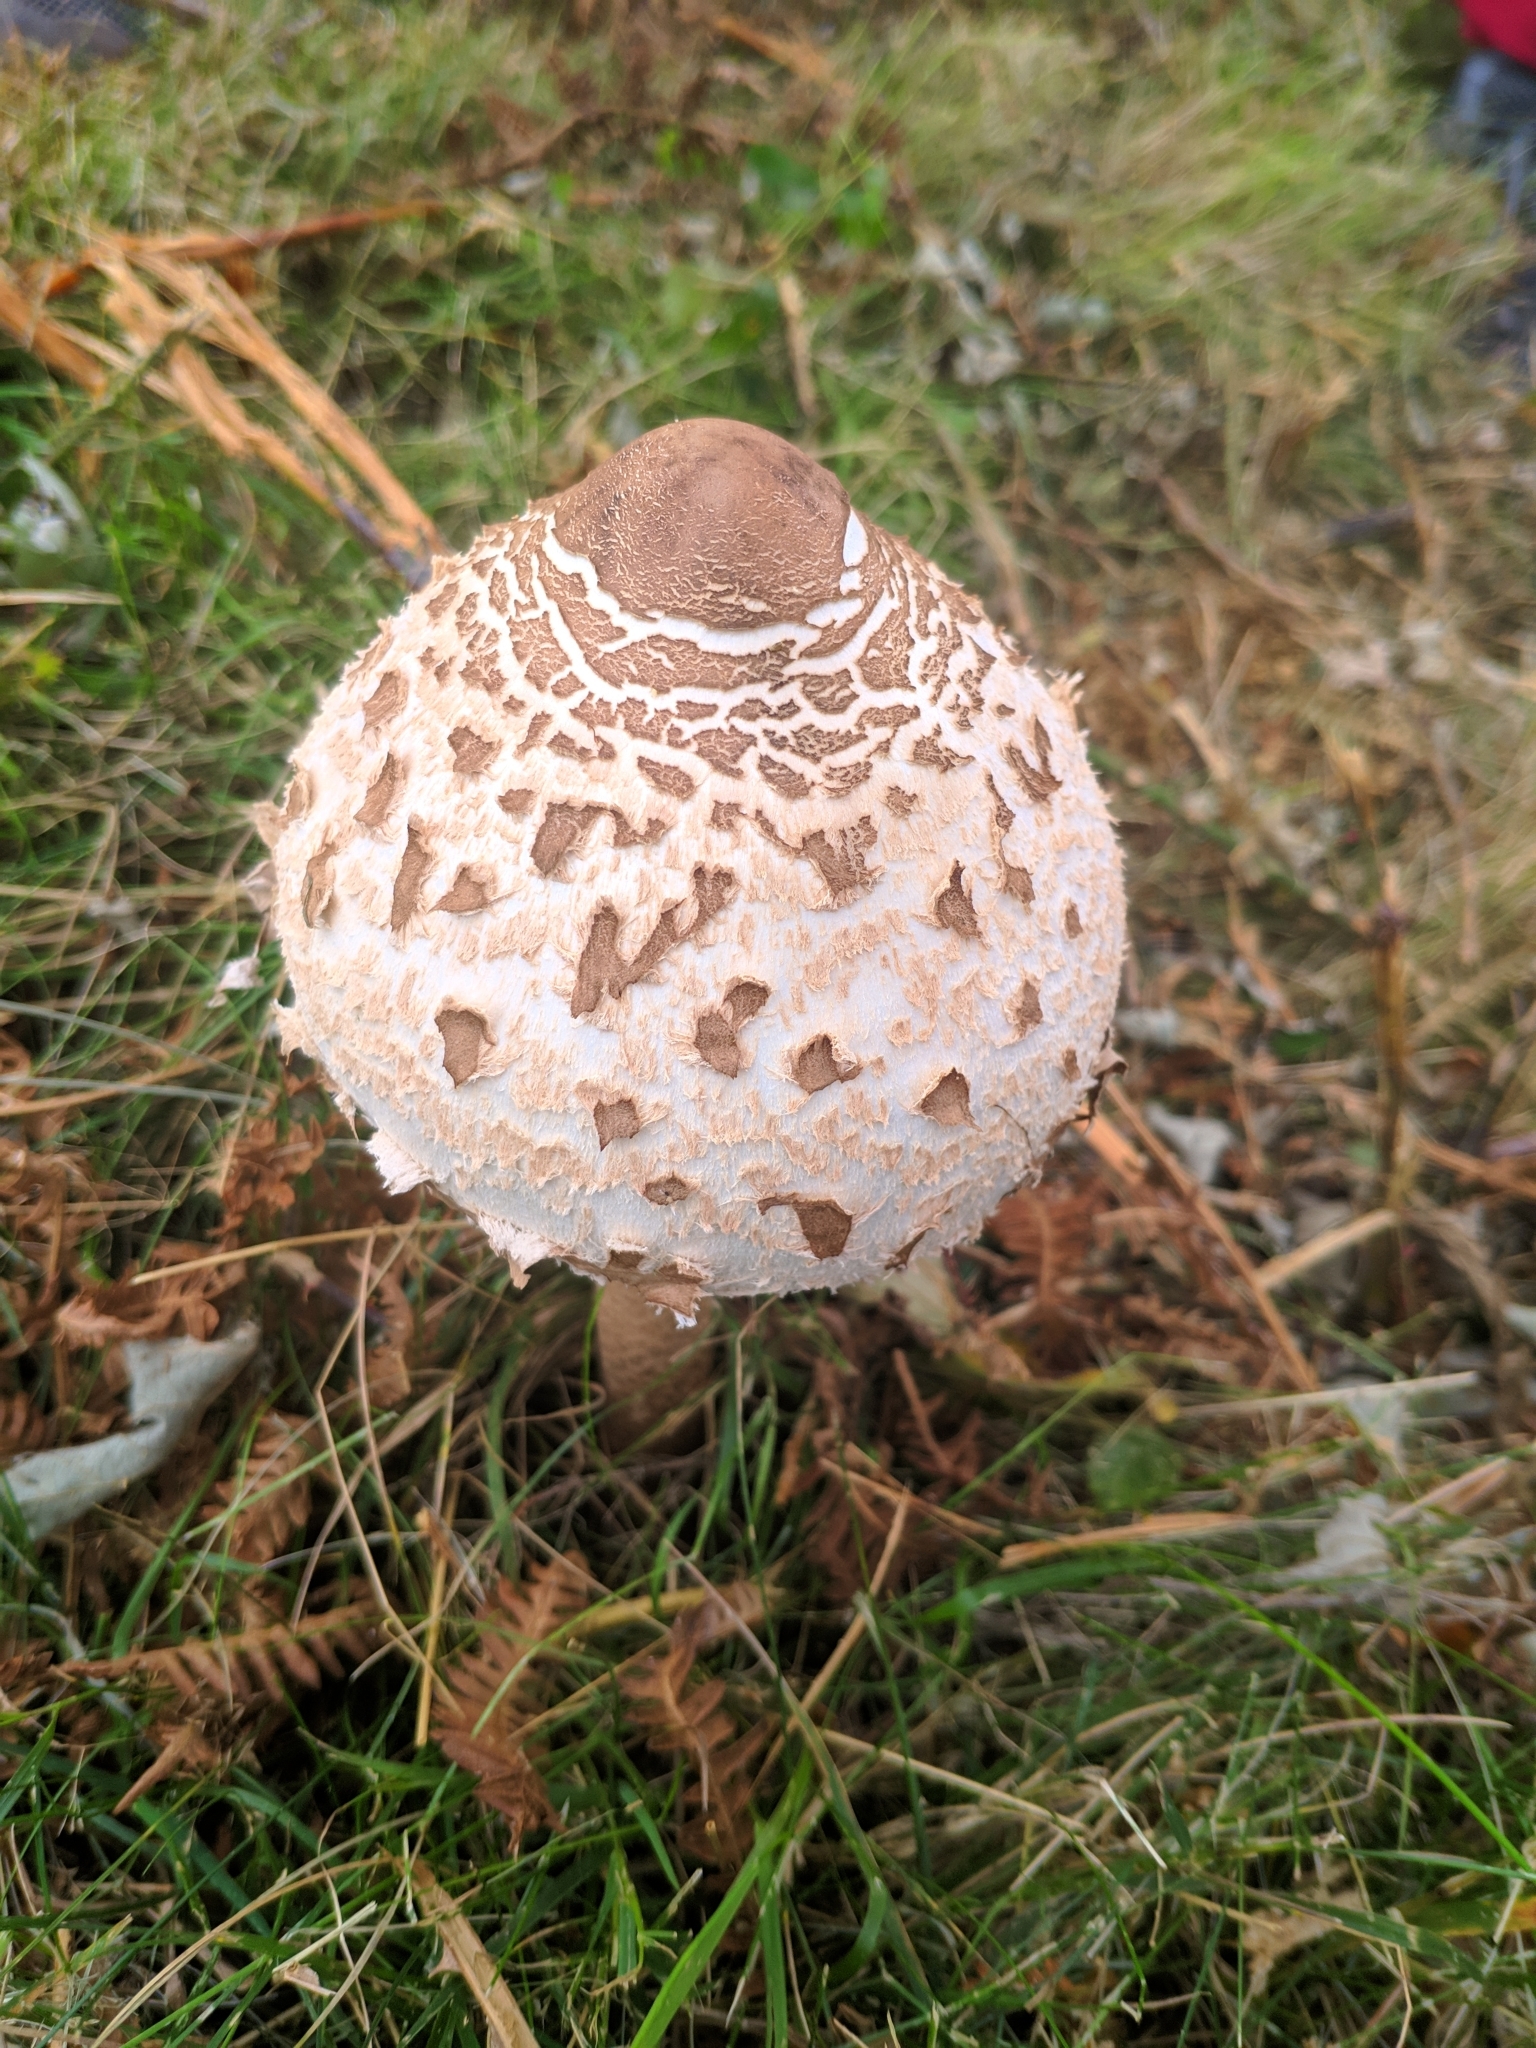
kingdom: Fungi
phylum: Basidiomycota
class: Agaricomycetes
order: Agaricales
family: Agaricaceae
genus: Macrolepiota
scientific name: Macrolepiota procera
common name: Parasol
